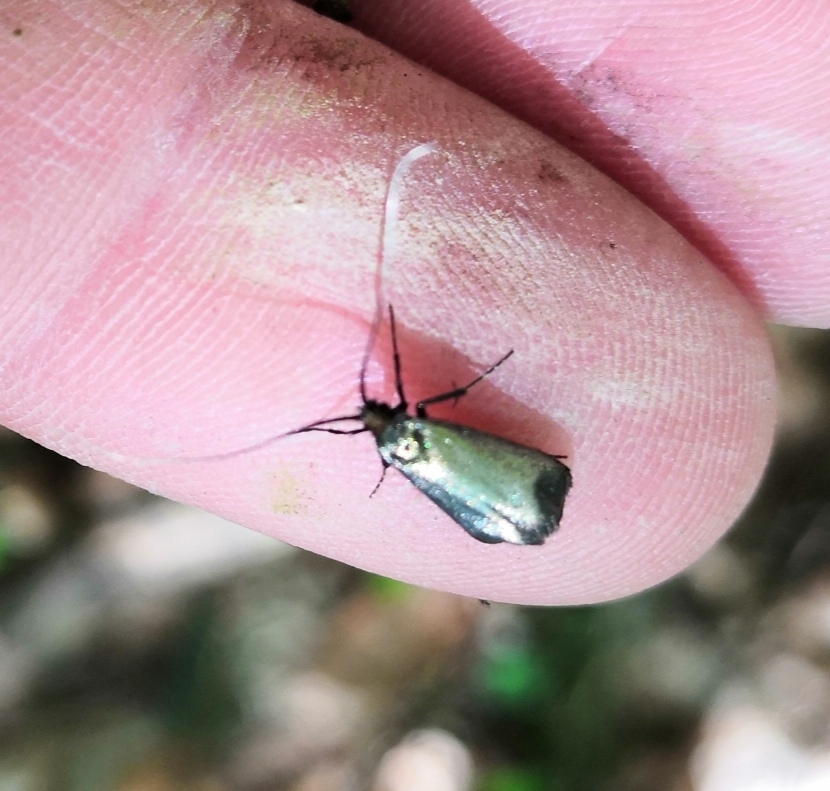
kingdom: Animalia
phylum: Arthropoda
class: Insecta
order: Lepidoptera
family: Adelidae
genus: Adela
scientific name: Adela viridella
